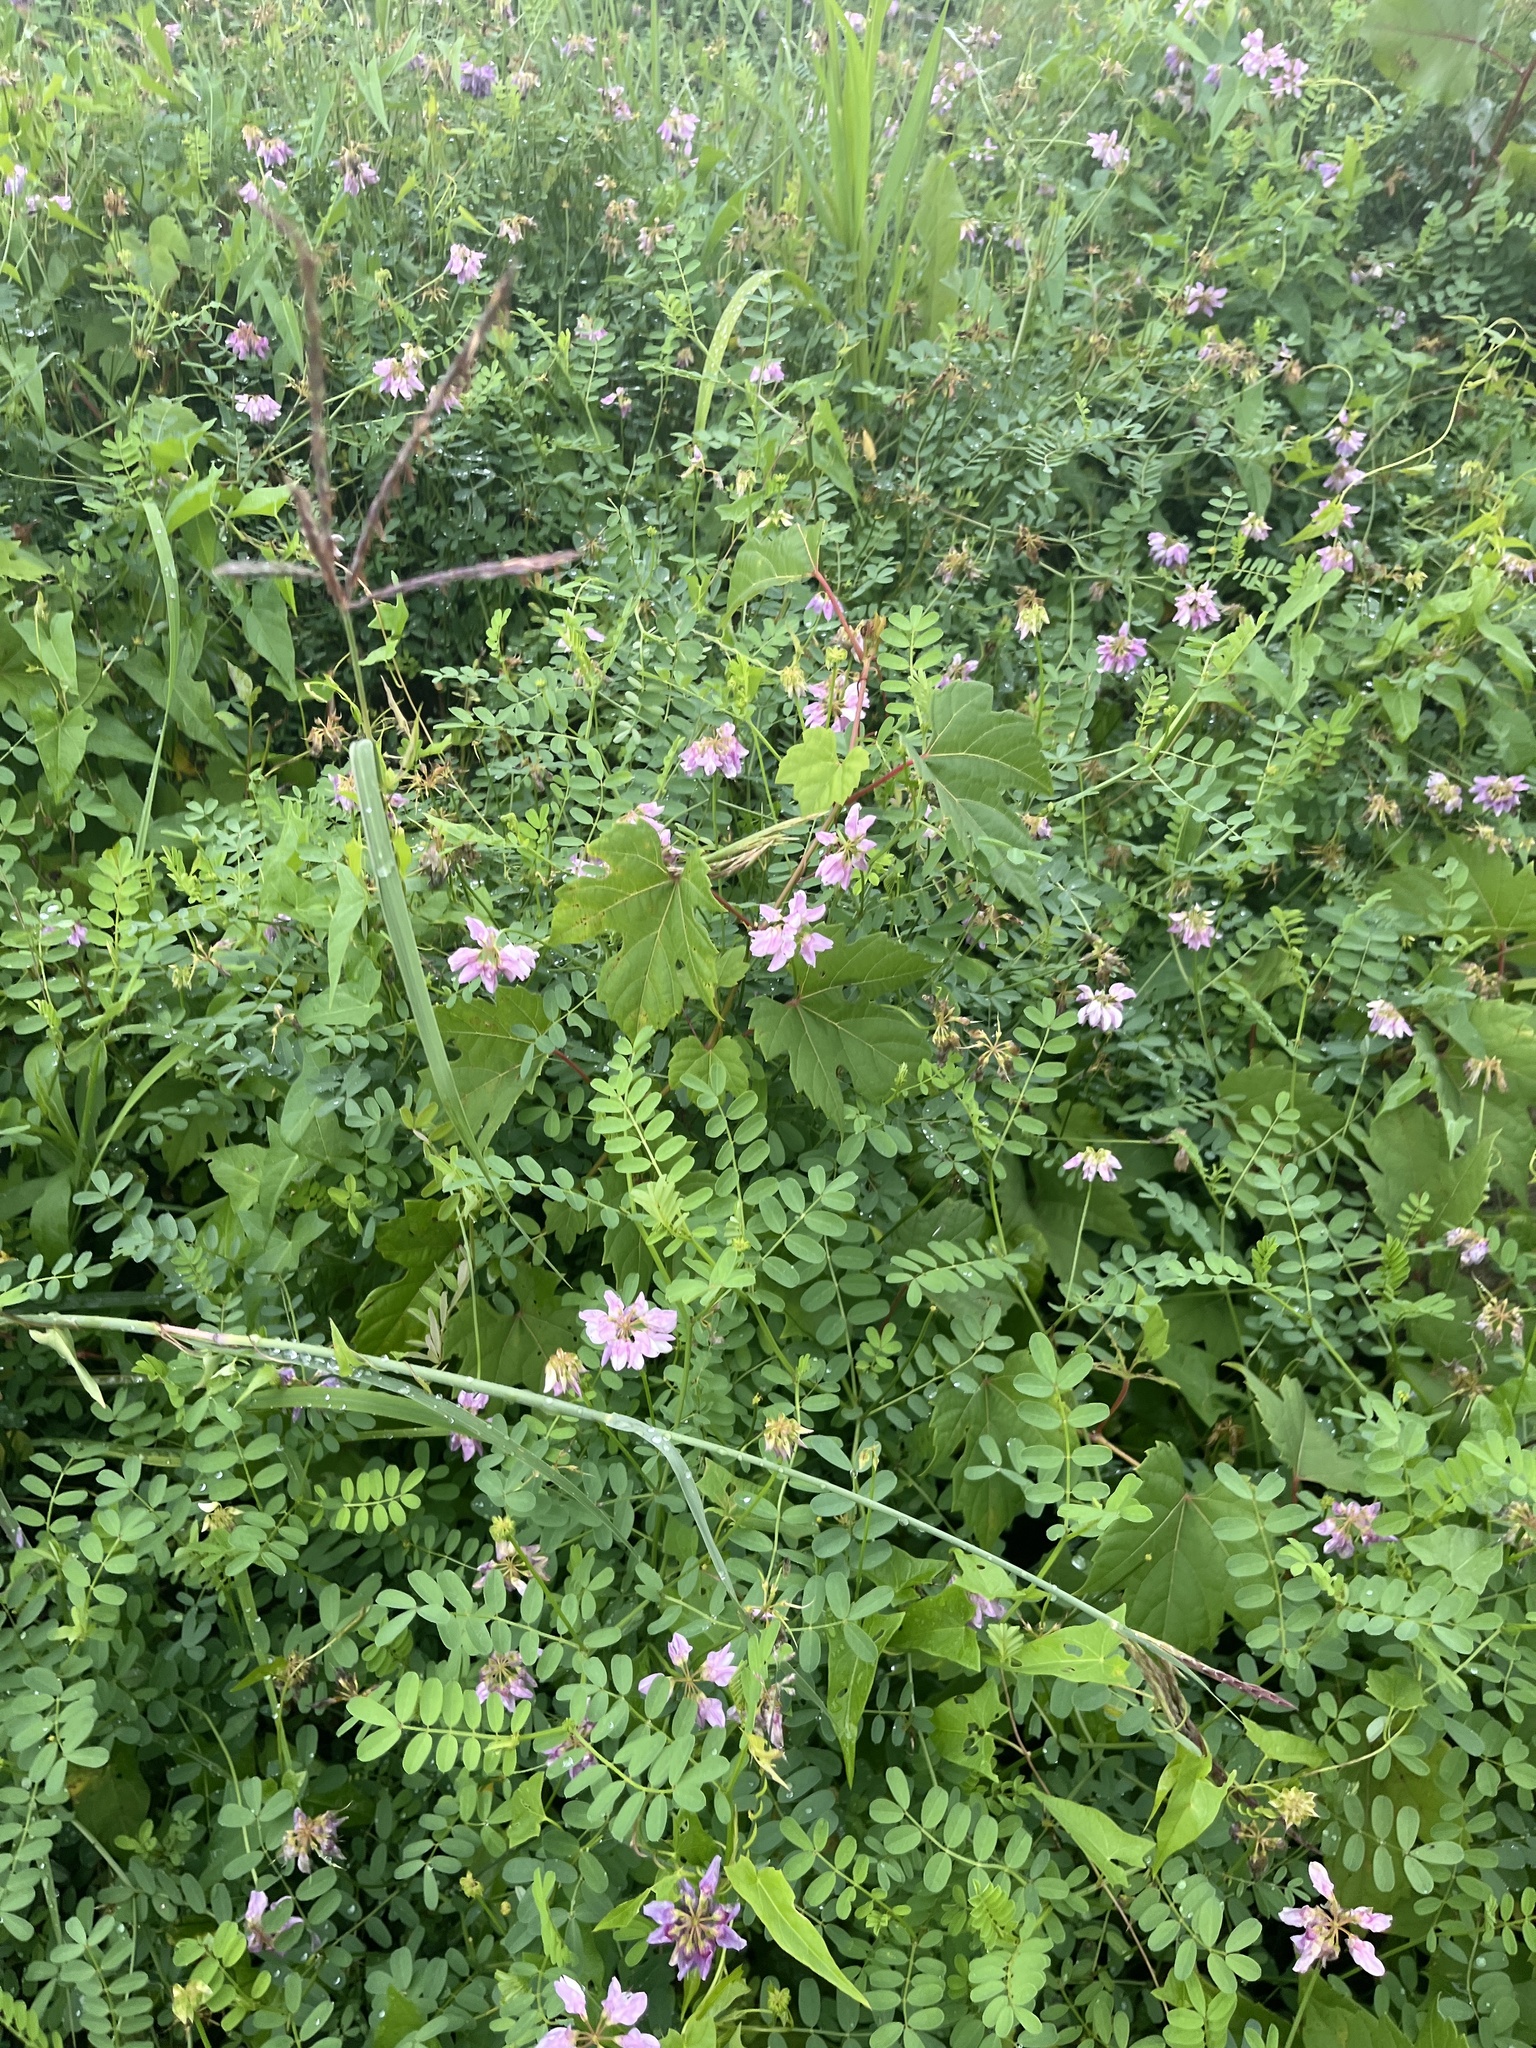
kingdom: Plantae
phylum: Tracheophyta
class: Magnoliopsida
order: Fabales
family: Fabaceae
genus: Coronilla
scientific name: Coronilla varia
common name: Crownvetch
